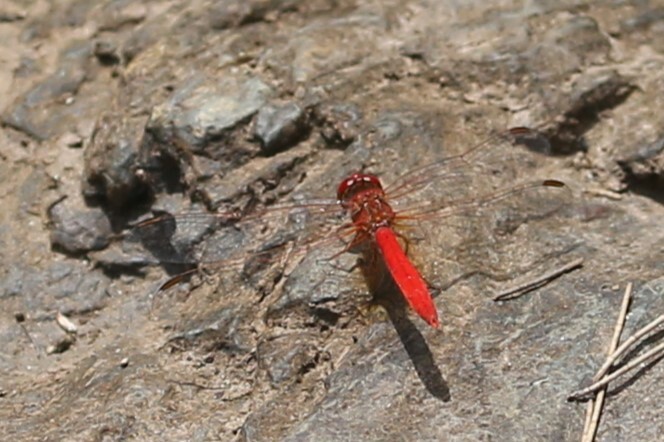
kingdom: Animalia
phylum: Arthropoda
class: Insecta
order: Odonata
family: Libellulidae
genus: Diplacodes
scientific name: Diplacodes haematodes
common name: Scarlet percher
